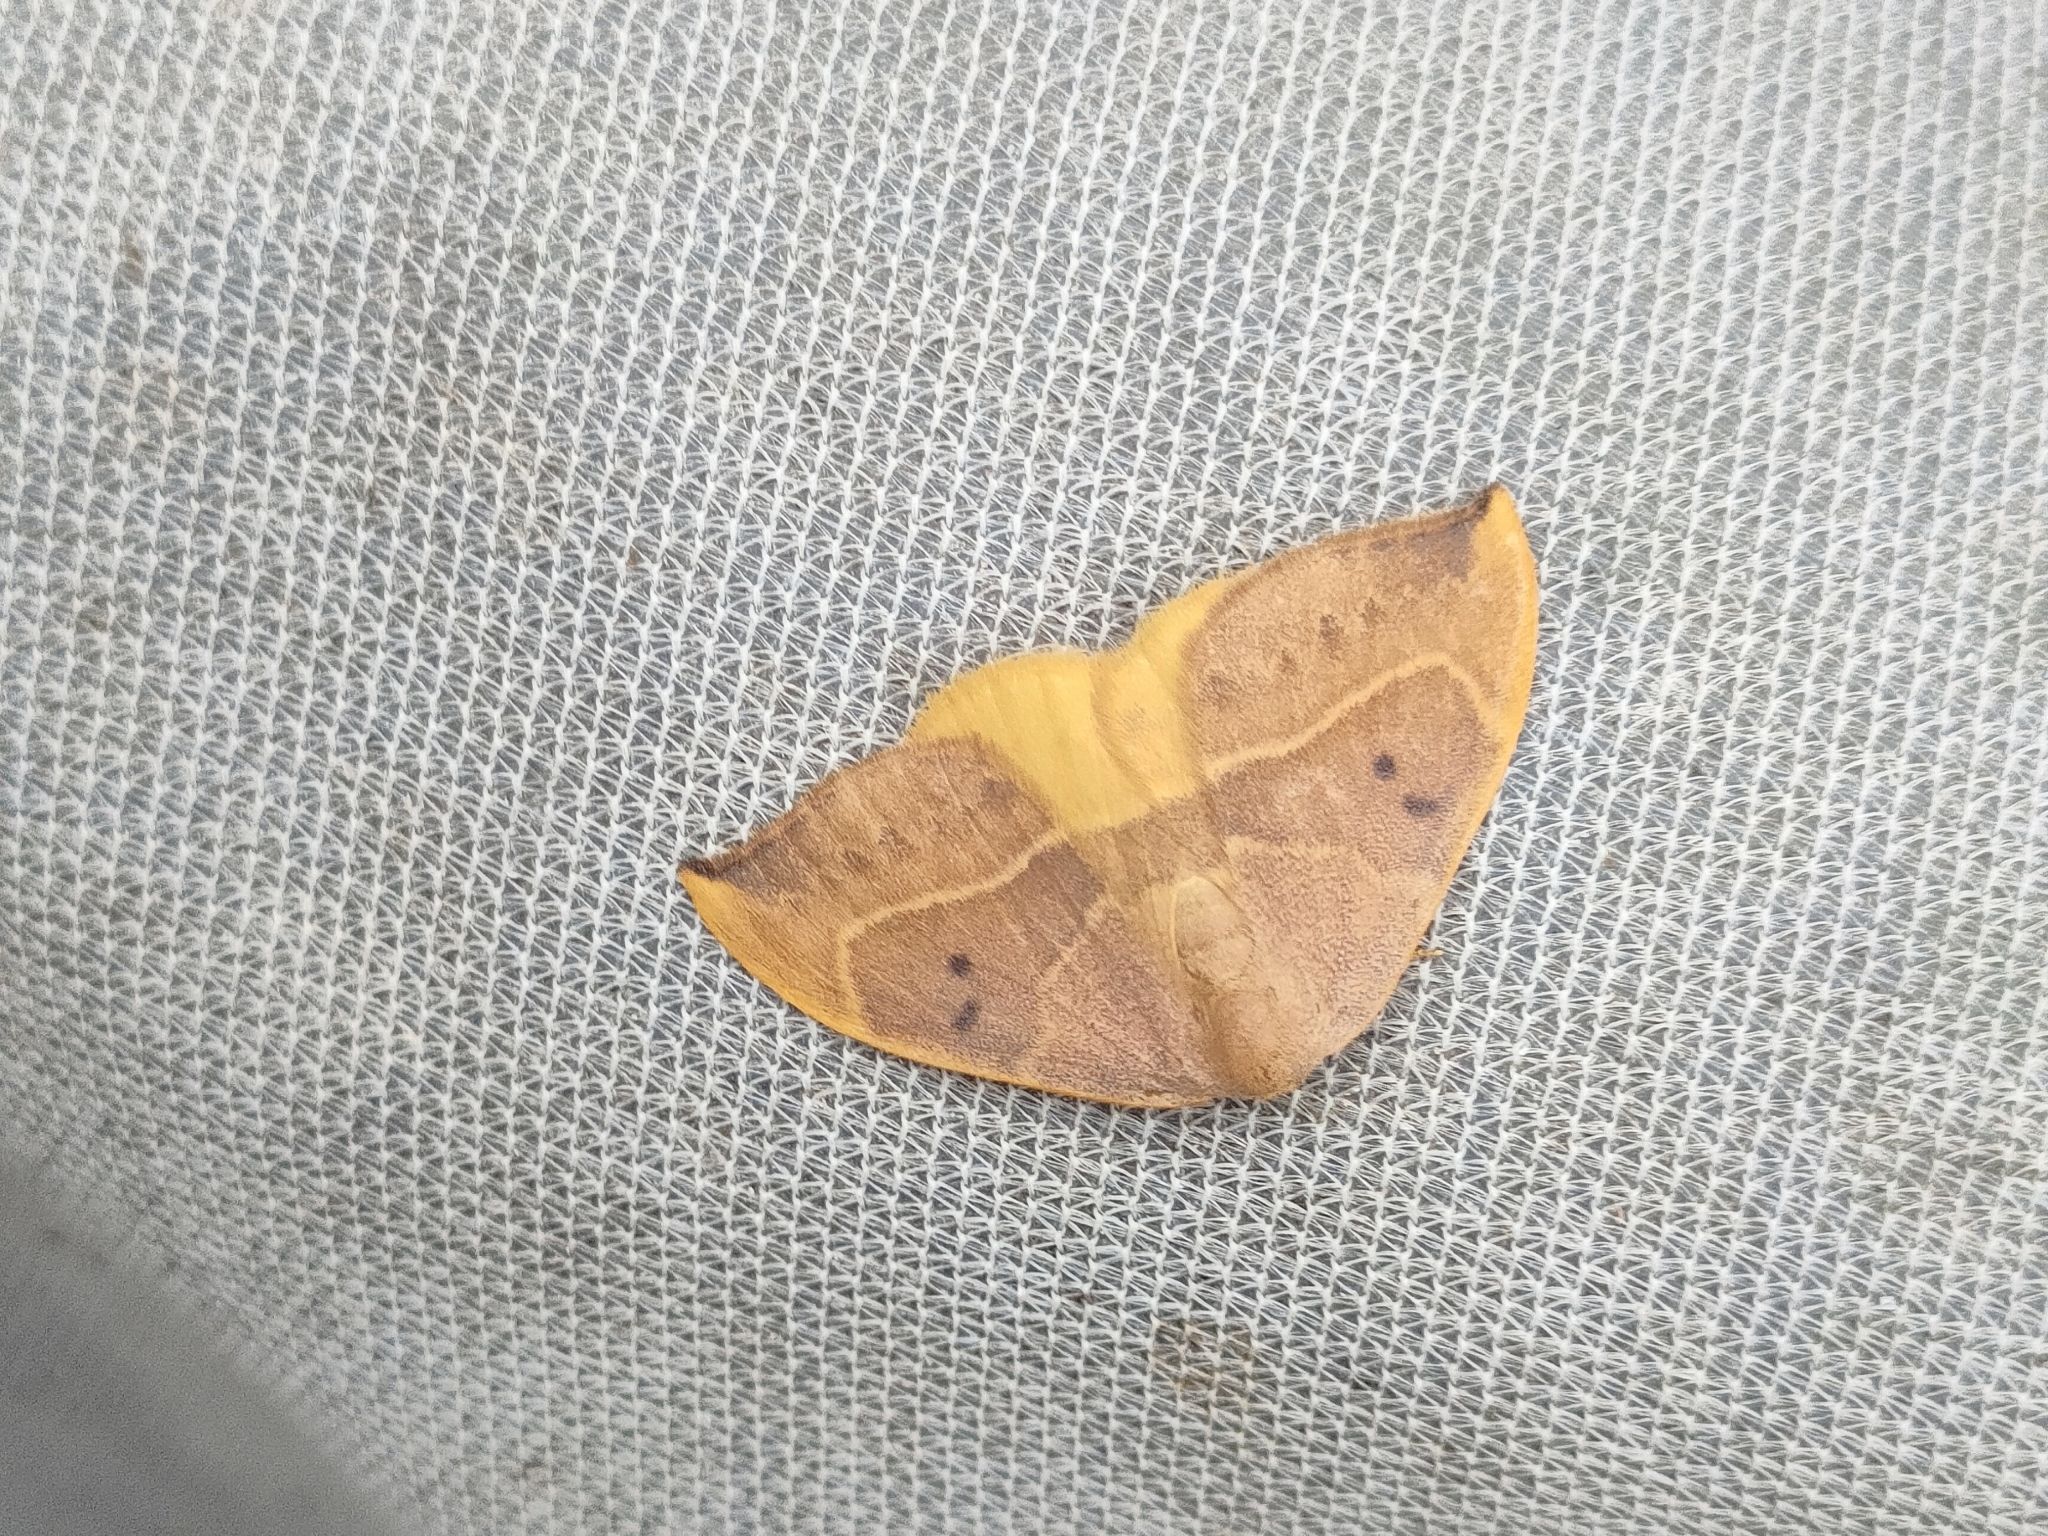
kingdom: Animalia
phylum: Arthropoda
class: Insecta
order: Lepidoptera
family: Drepanidae
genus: Watsonalla
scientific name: Watsonalla binaria
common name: Oak hook-tip
